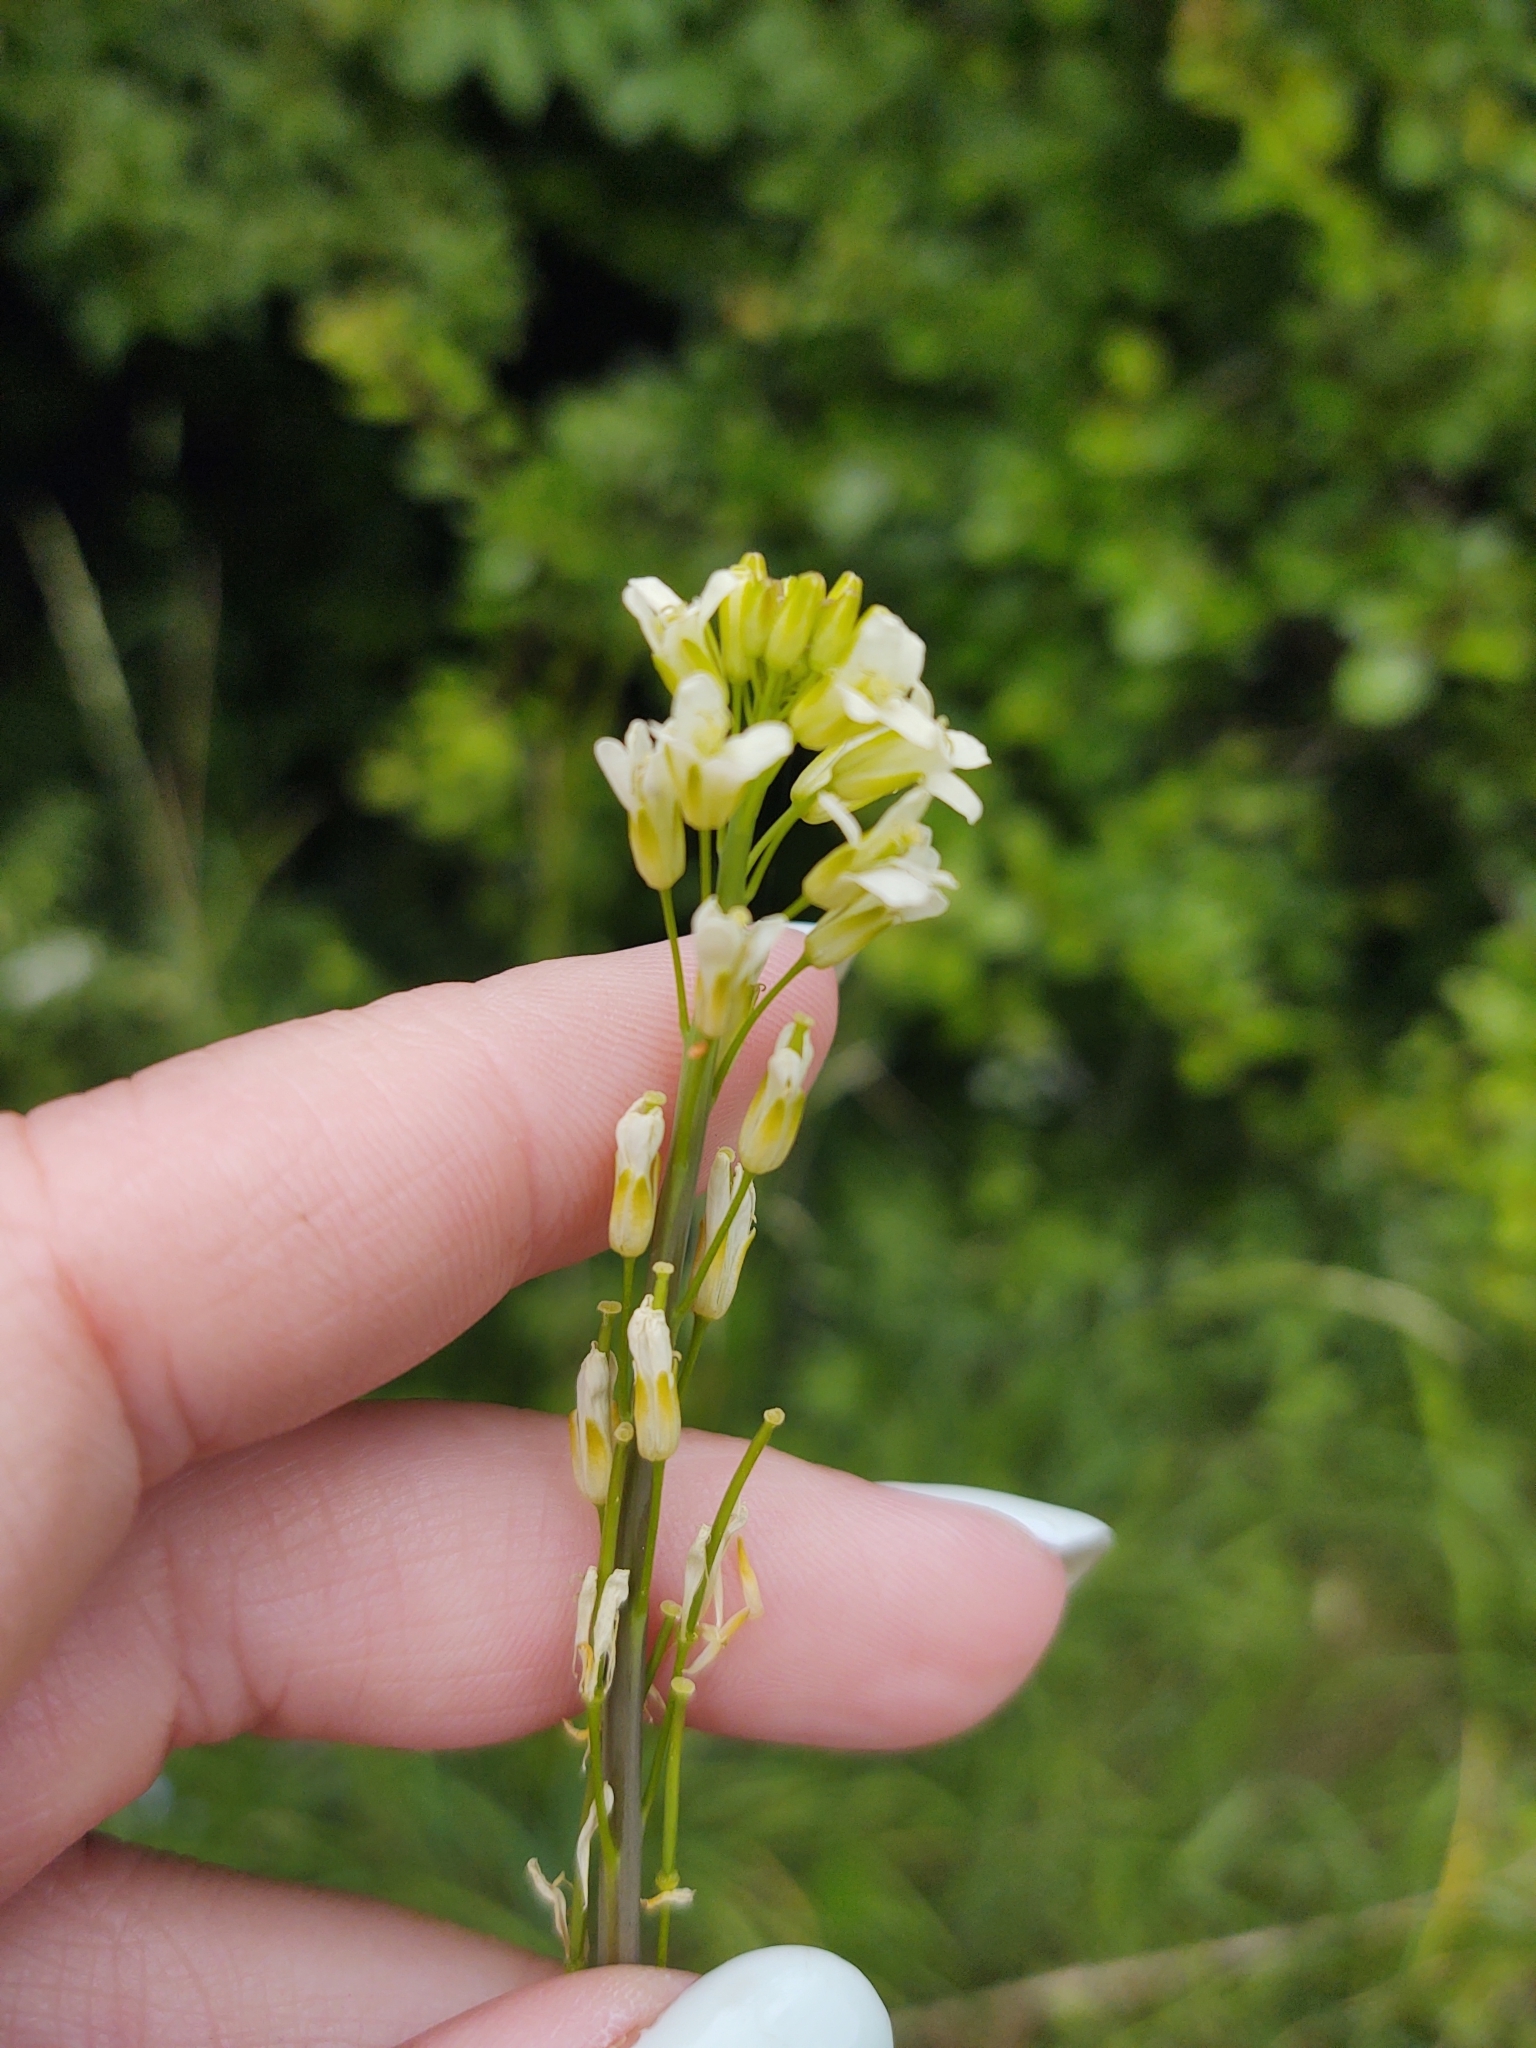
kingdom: Plantae
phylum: Tracheophyta
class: Magnoliopsida
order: Brassicales
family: Brassicaceae
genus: Turritis
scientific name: Turritis glabra
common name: Tower rockcress
